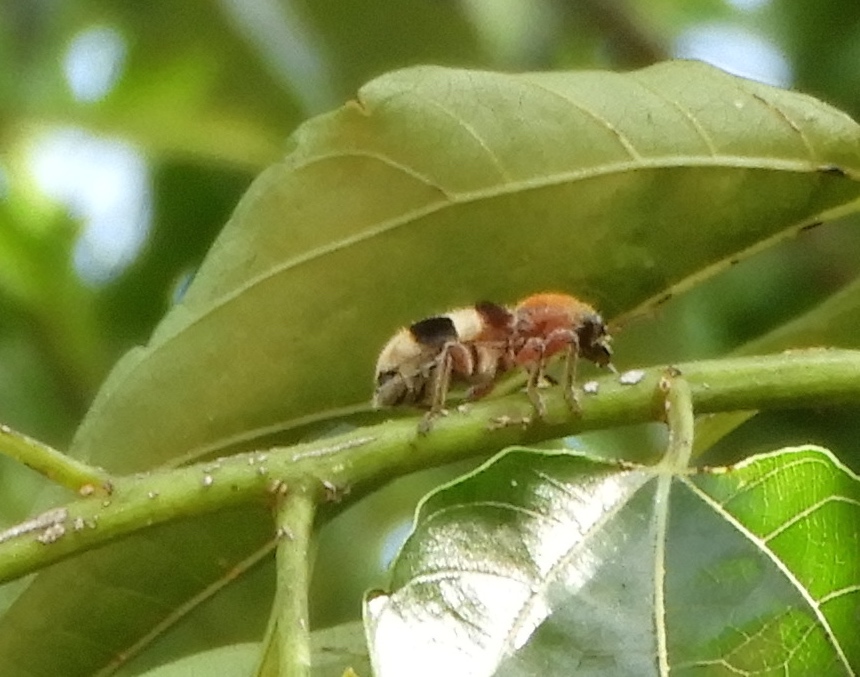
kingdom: Animalia
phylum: Arthropoda
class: Insecta
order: Coleoptera
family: Cleridae
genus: Enoclerus
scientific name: Enoclerus quadriguttatus
